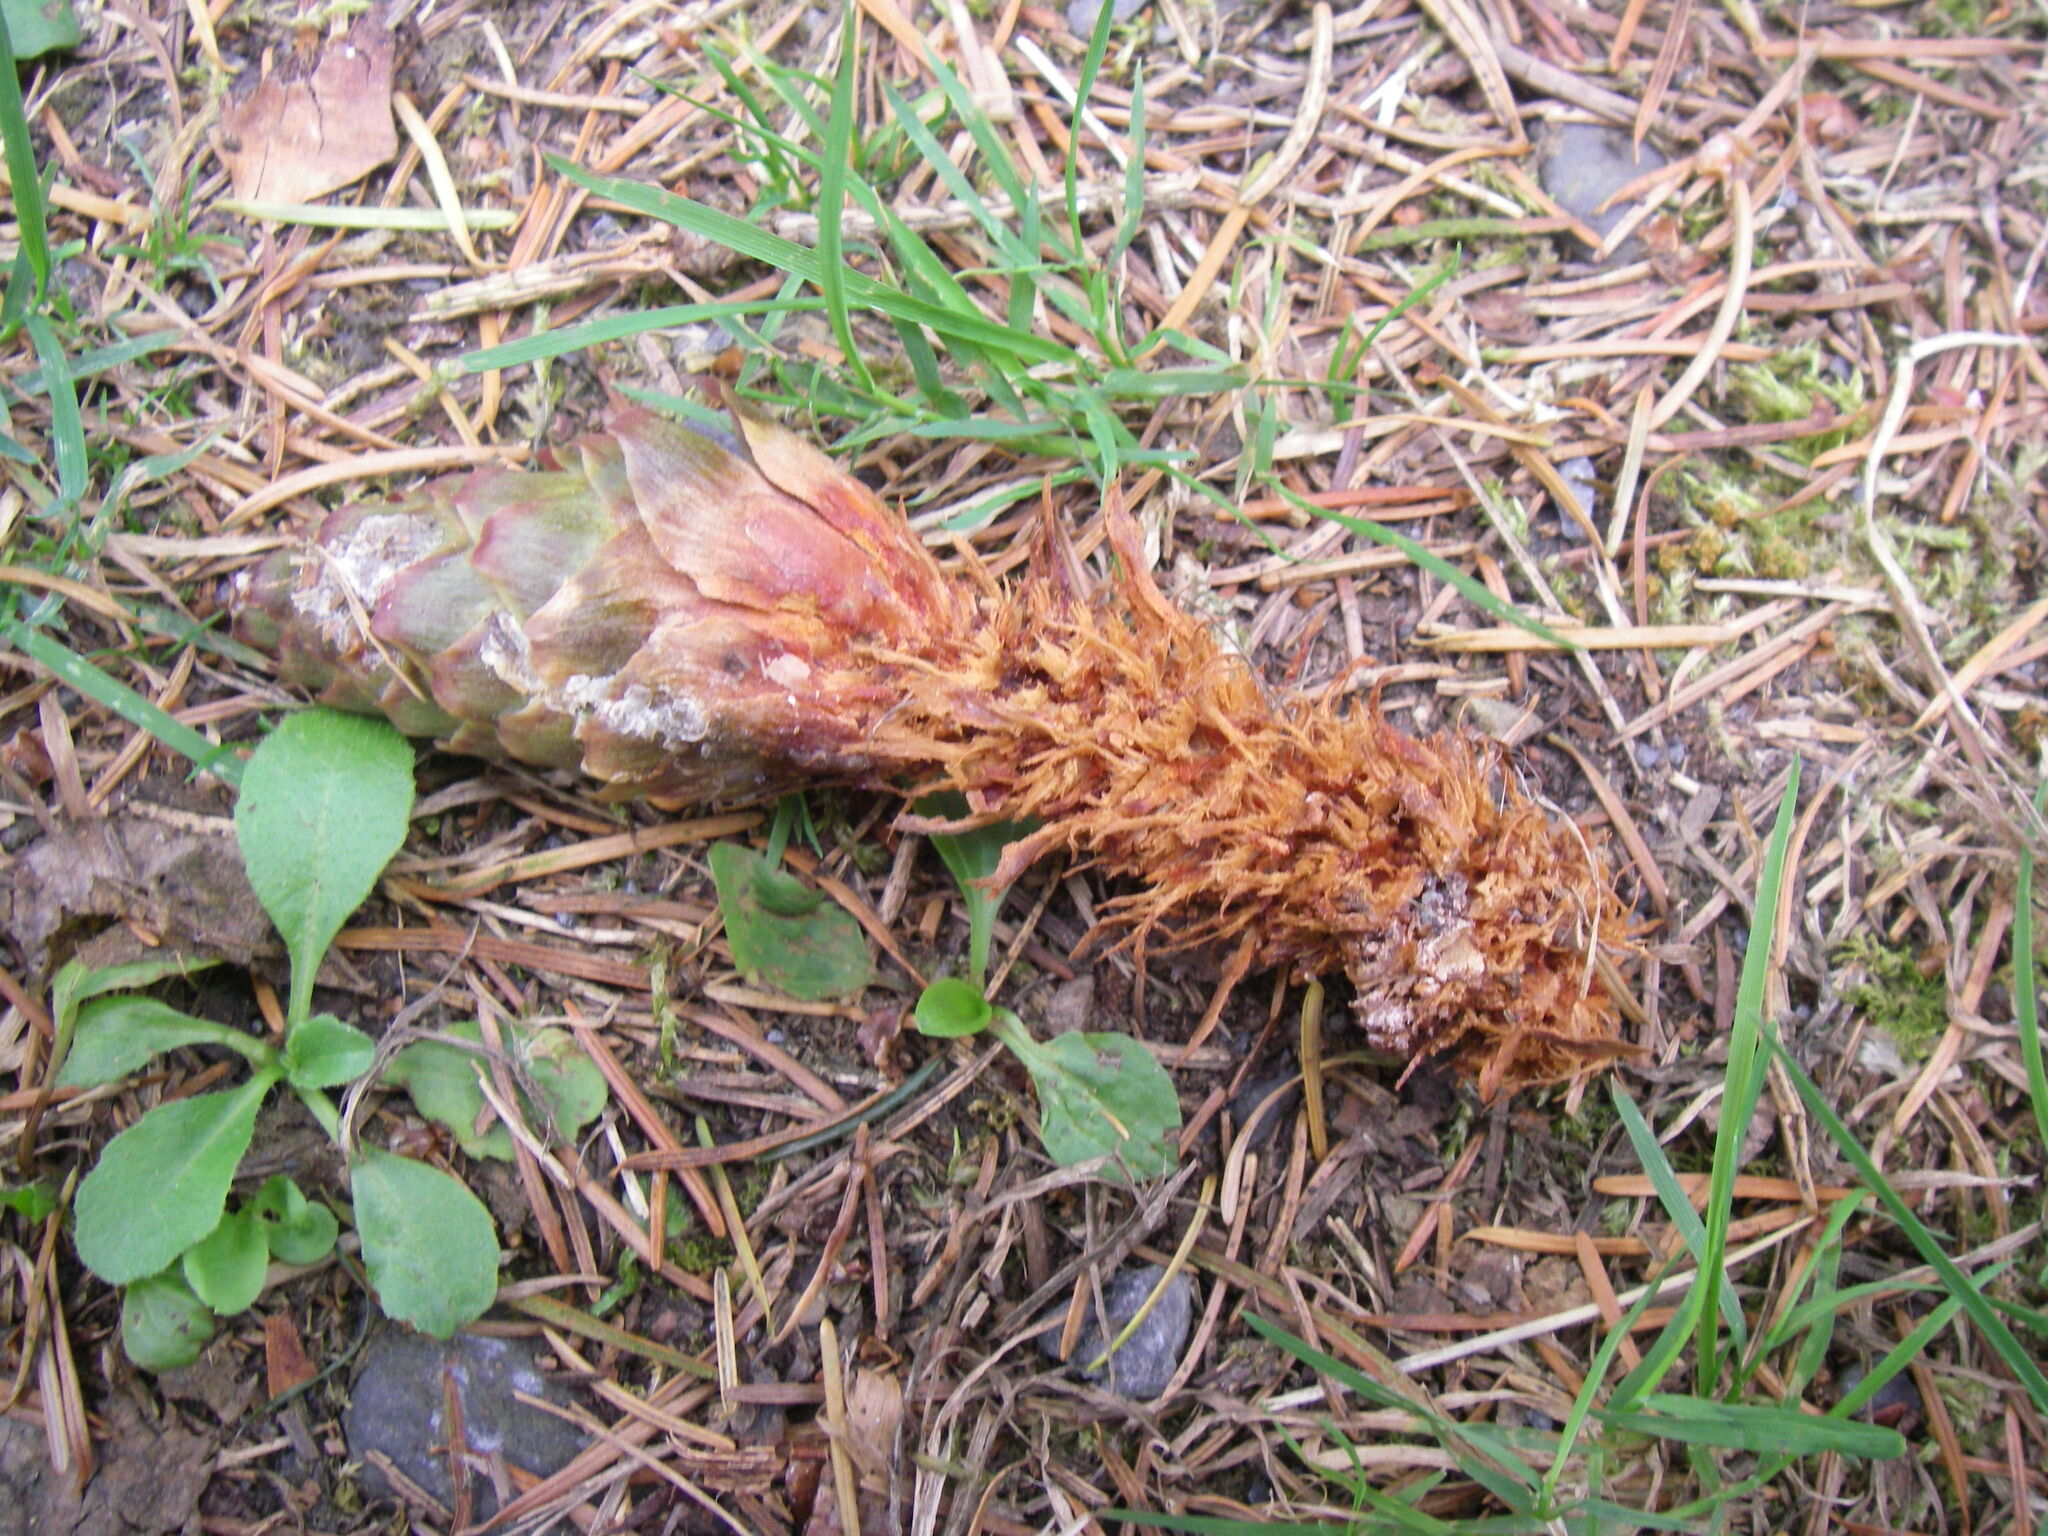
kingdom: Animalia
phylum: Chordata
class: Mammalia
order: Rodentia
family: Sciuridae
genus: Sciurus
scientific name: Sciurus vulgaris
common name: Eurasian red squirrel
